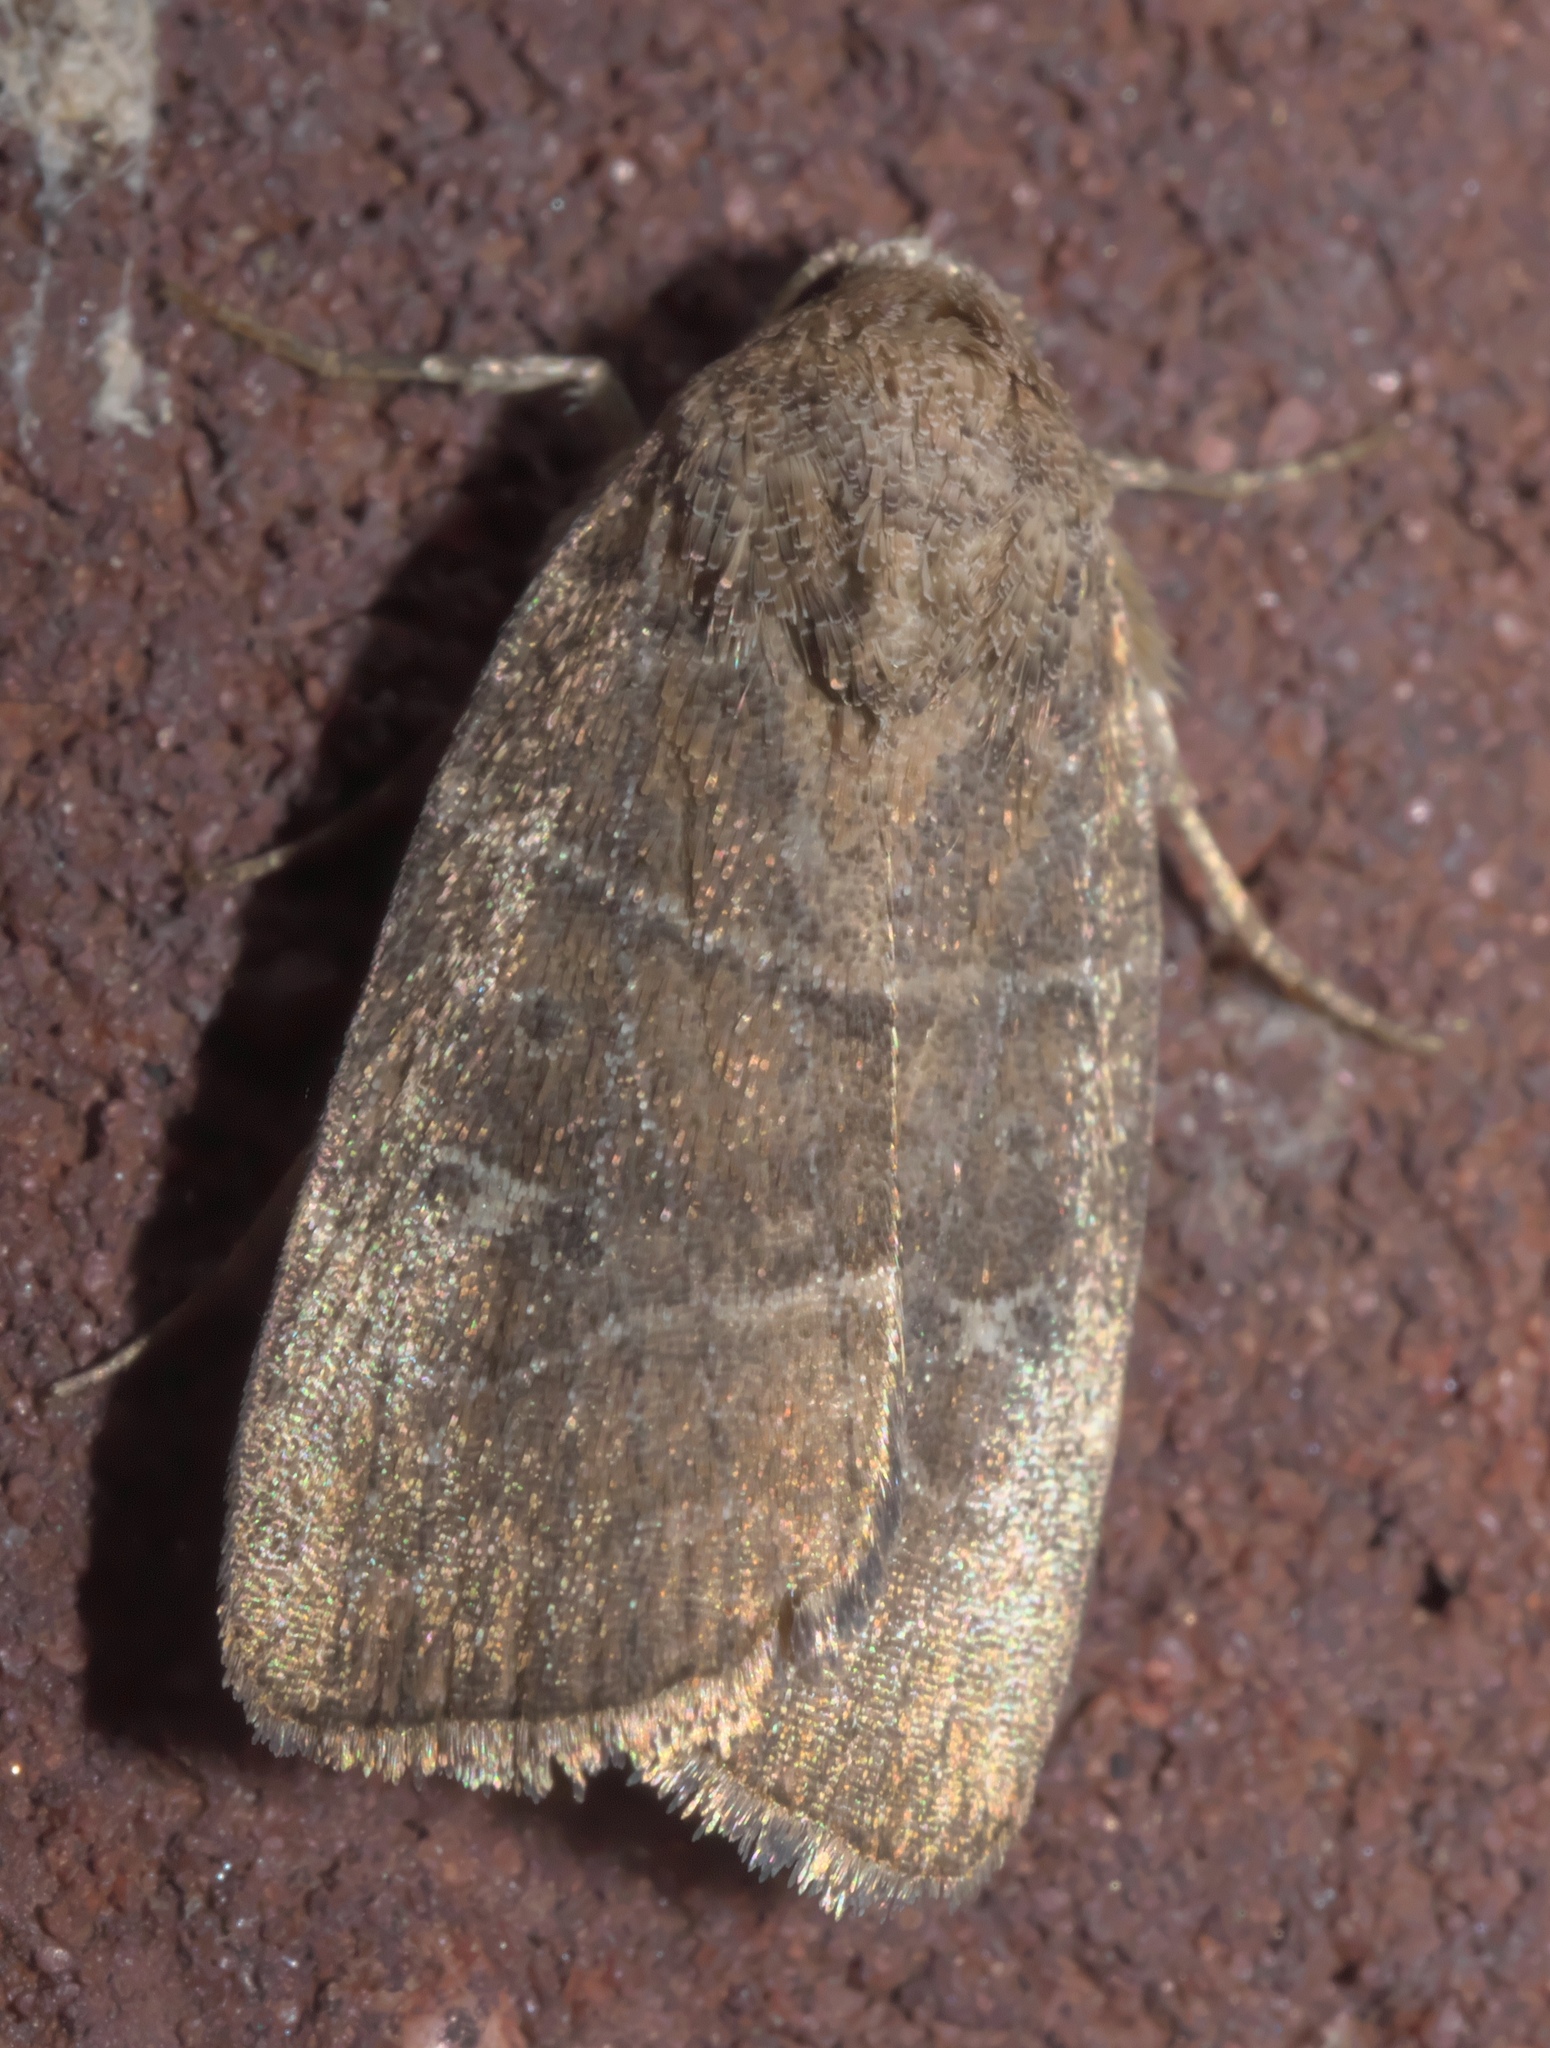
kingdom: Animalia
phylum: Arthropoda
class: Insecta
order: Lepidoptera
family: Noctuidae
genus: Elaphria
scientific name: Elaphria grata
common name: Grateful midget moth
